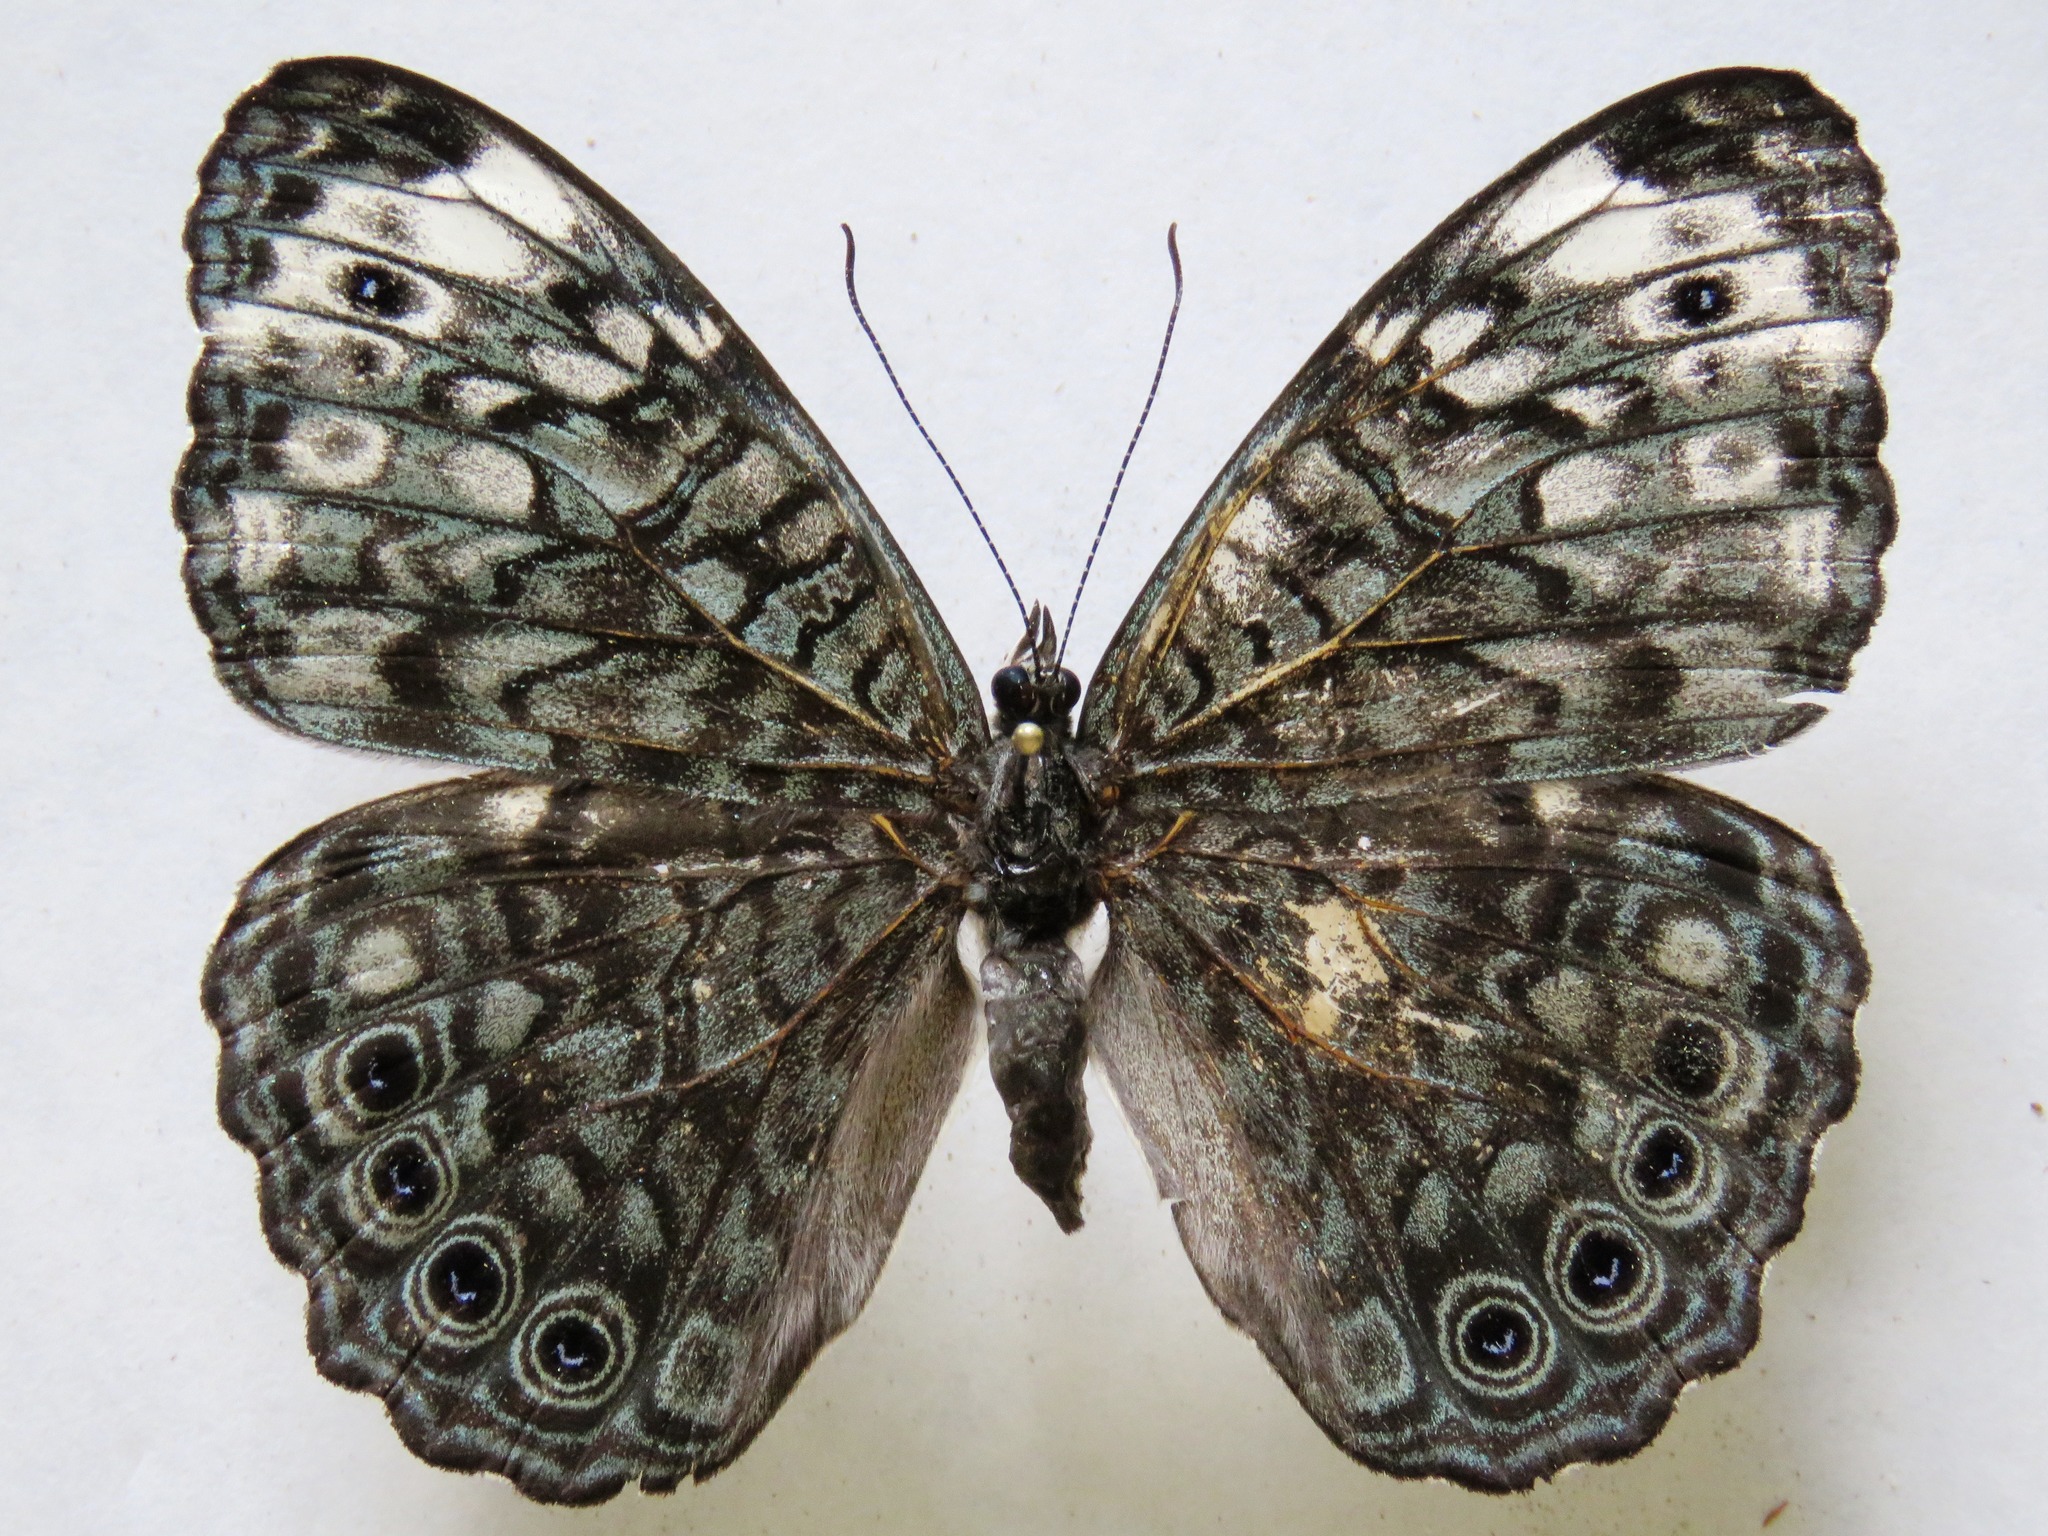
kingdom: Animalia
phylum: Arthropoda
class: Insecta
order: Lepidoptera
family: Nymphalidae
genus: Hamadryas
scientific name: Hamadryas atlantis
